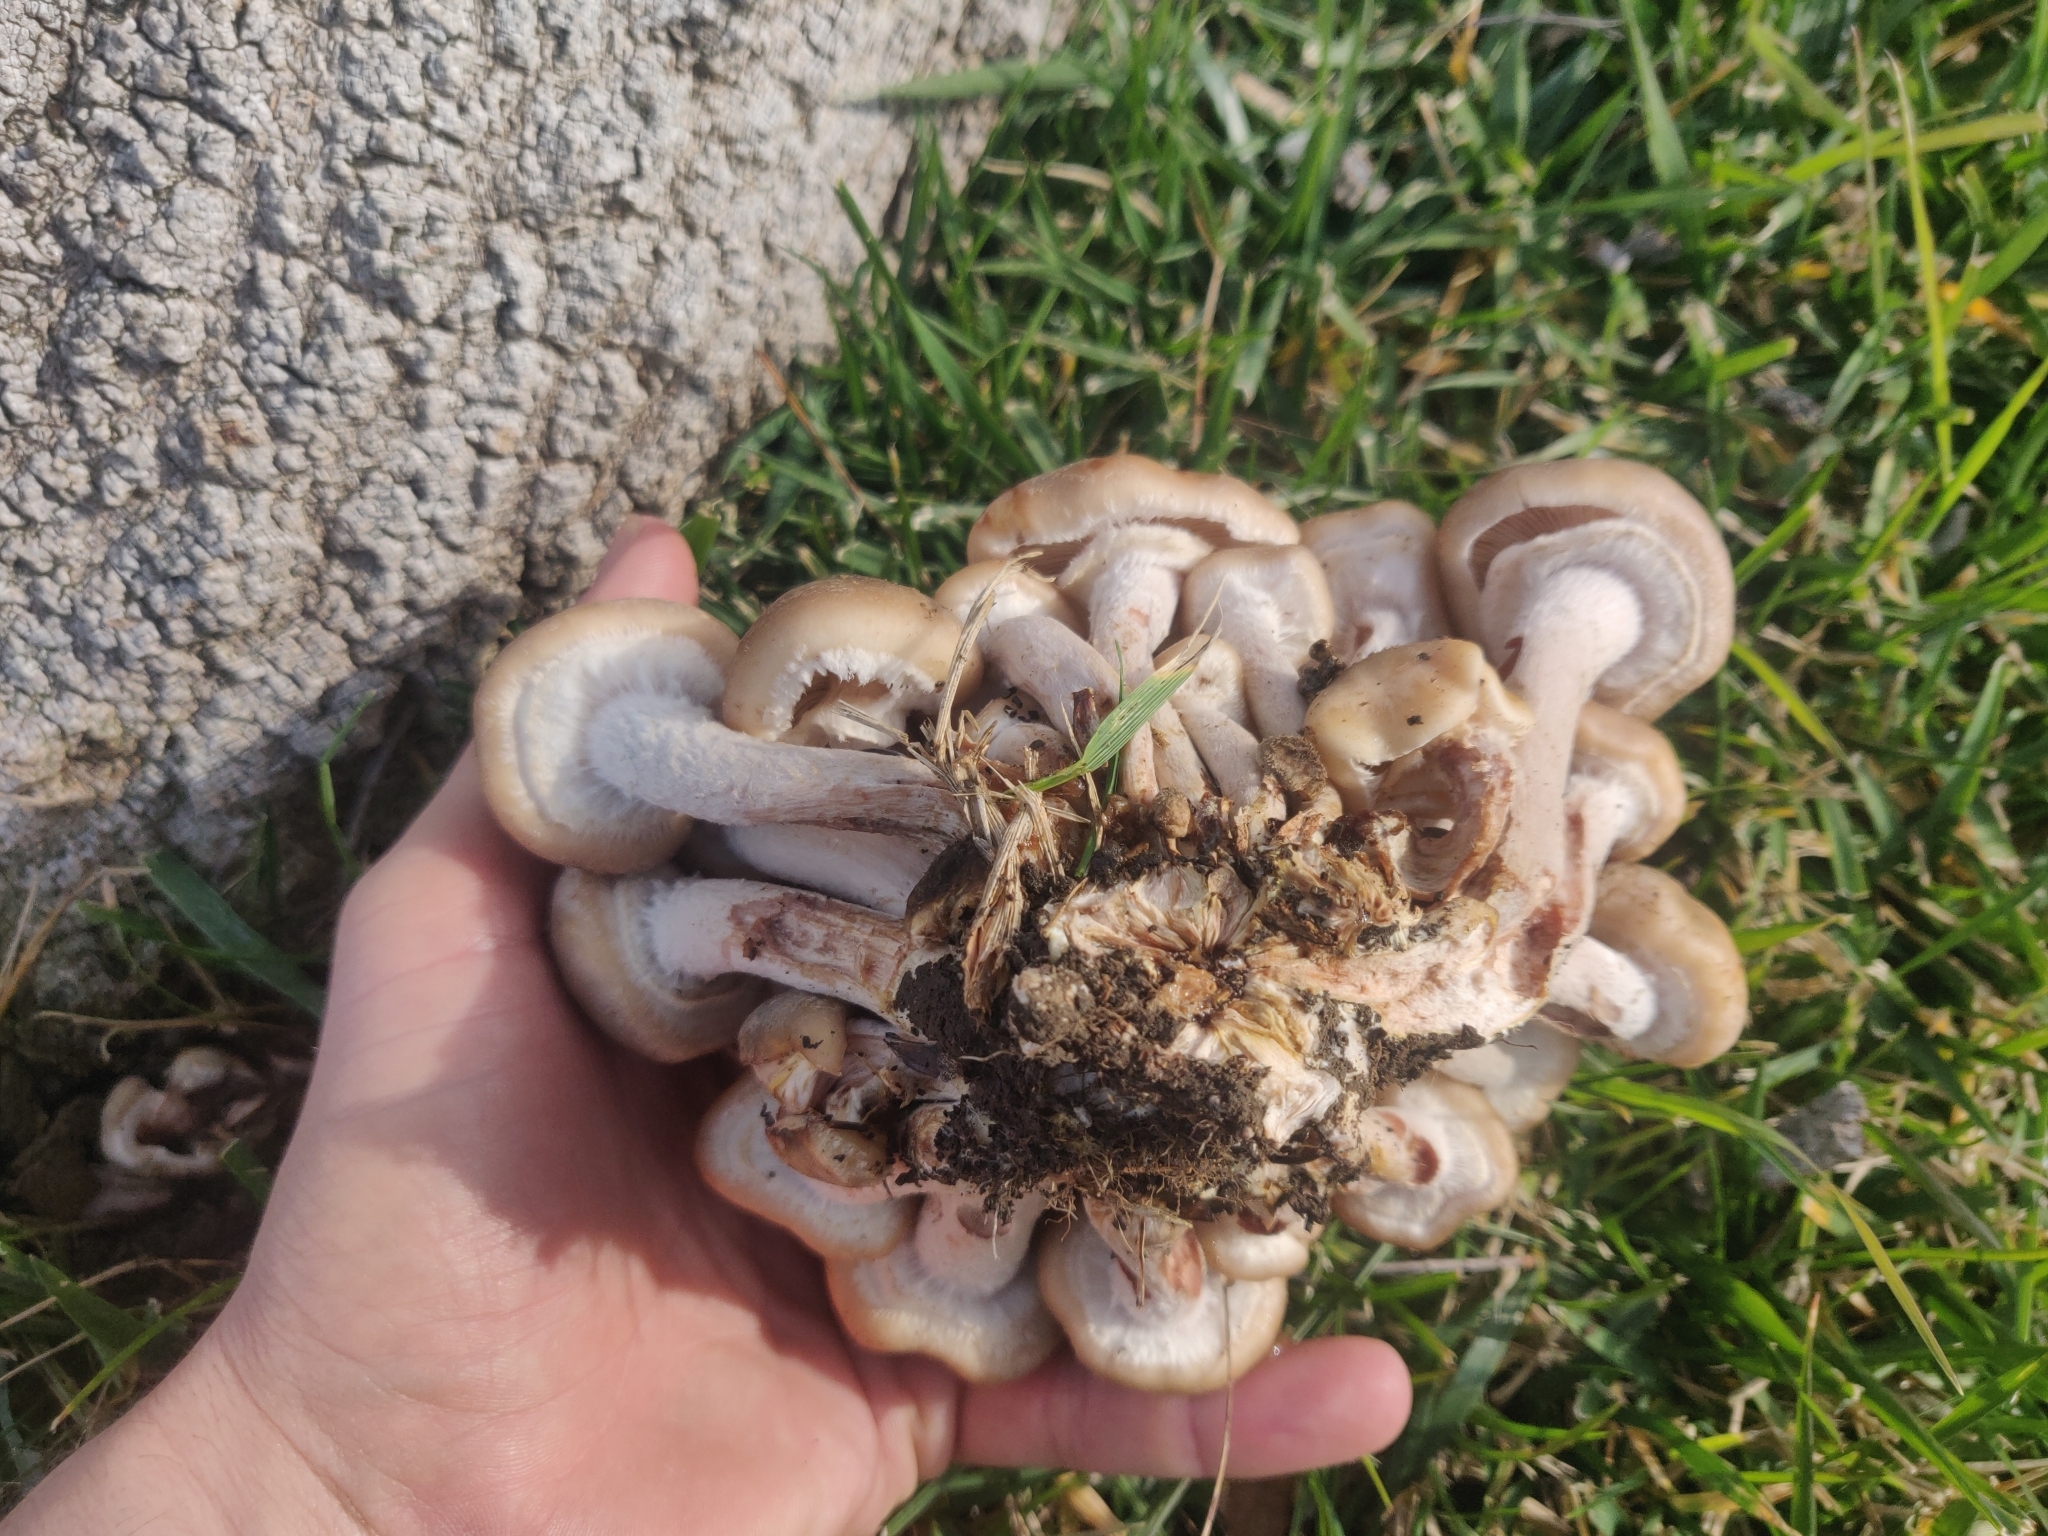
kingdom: Fungi
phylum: Basidiomycota
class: Agaricomycetes
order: Agaricales
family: Physalacriaceae
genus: Armillaria
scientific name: Armillaria mellea
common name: Honey fungus
